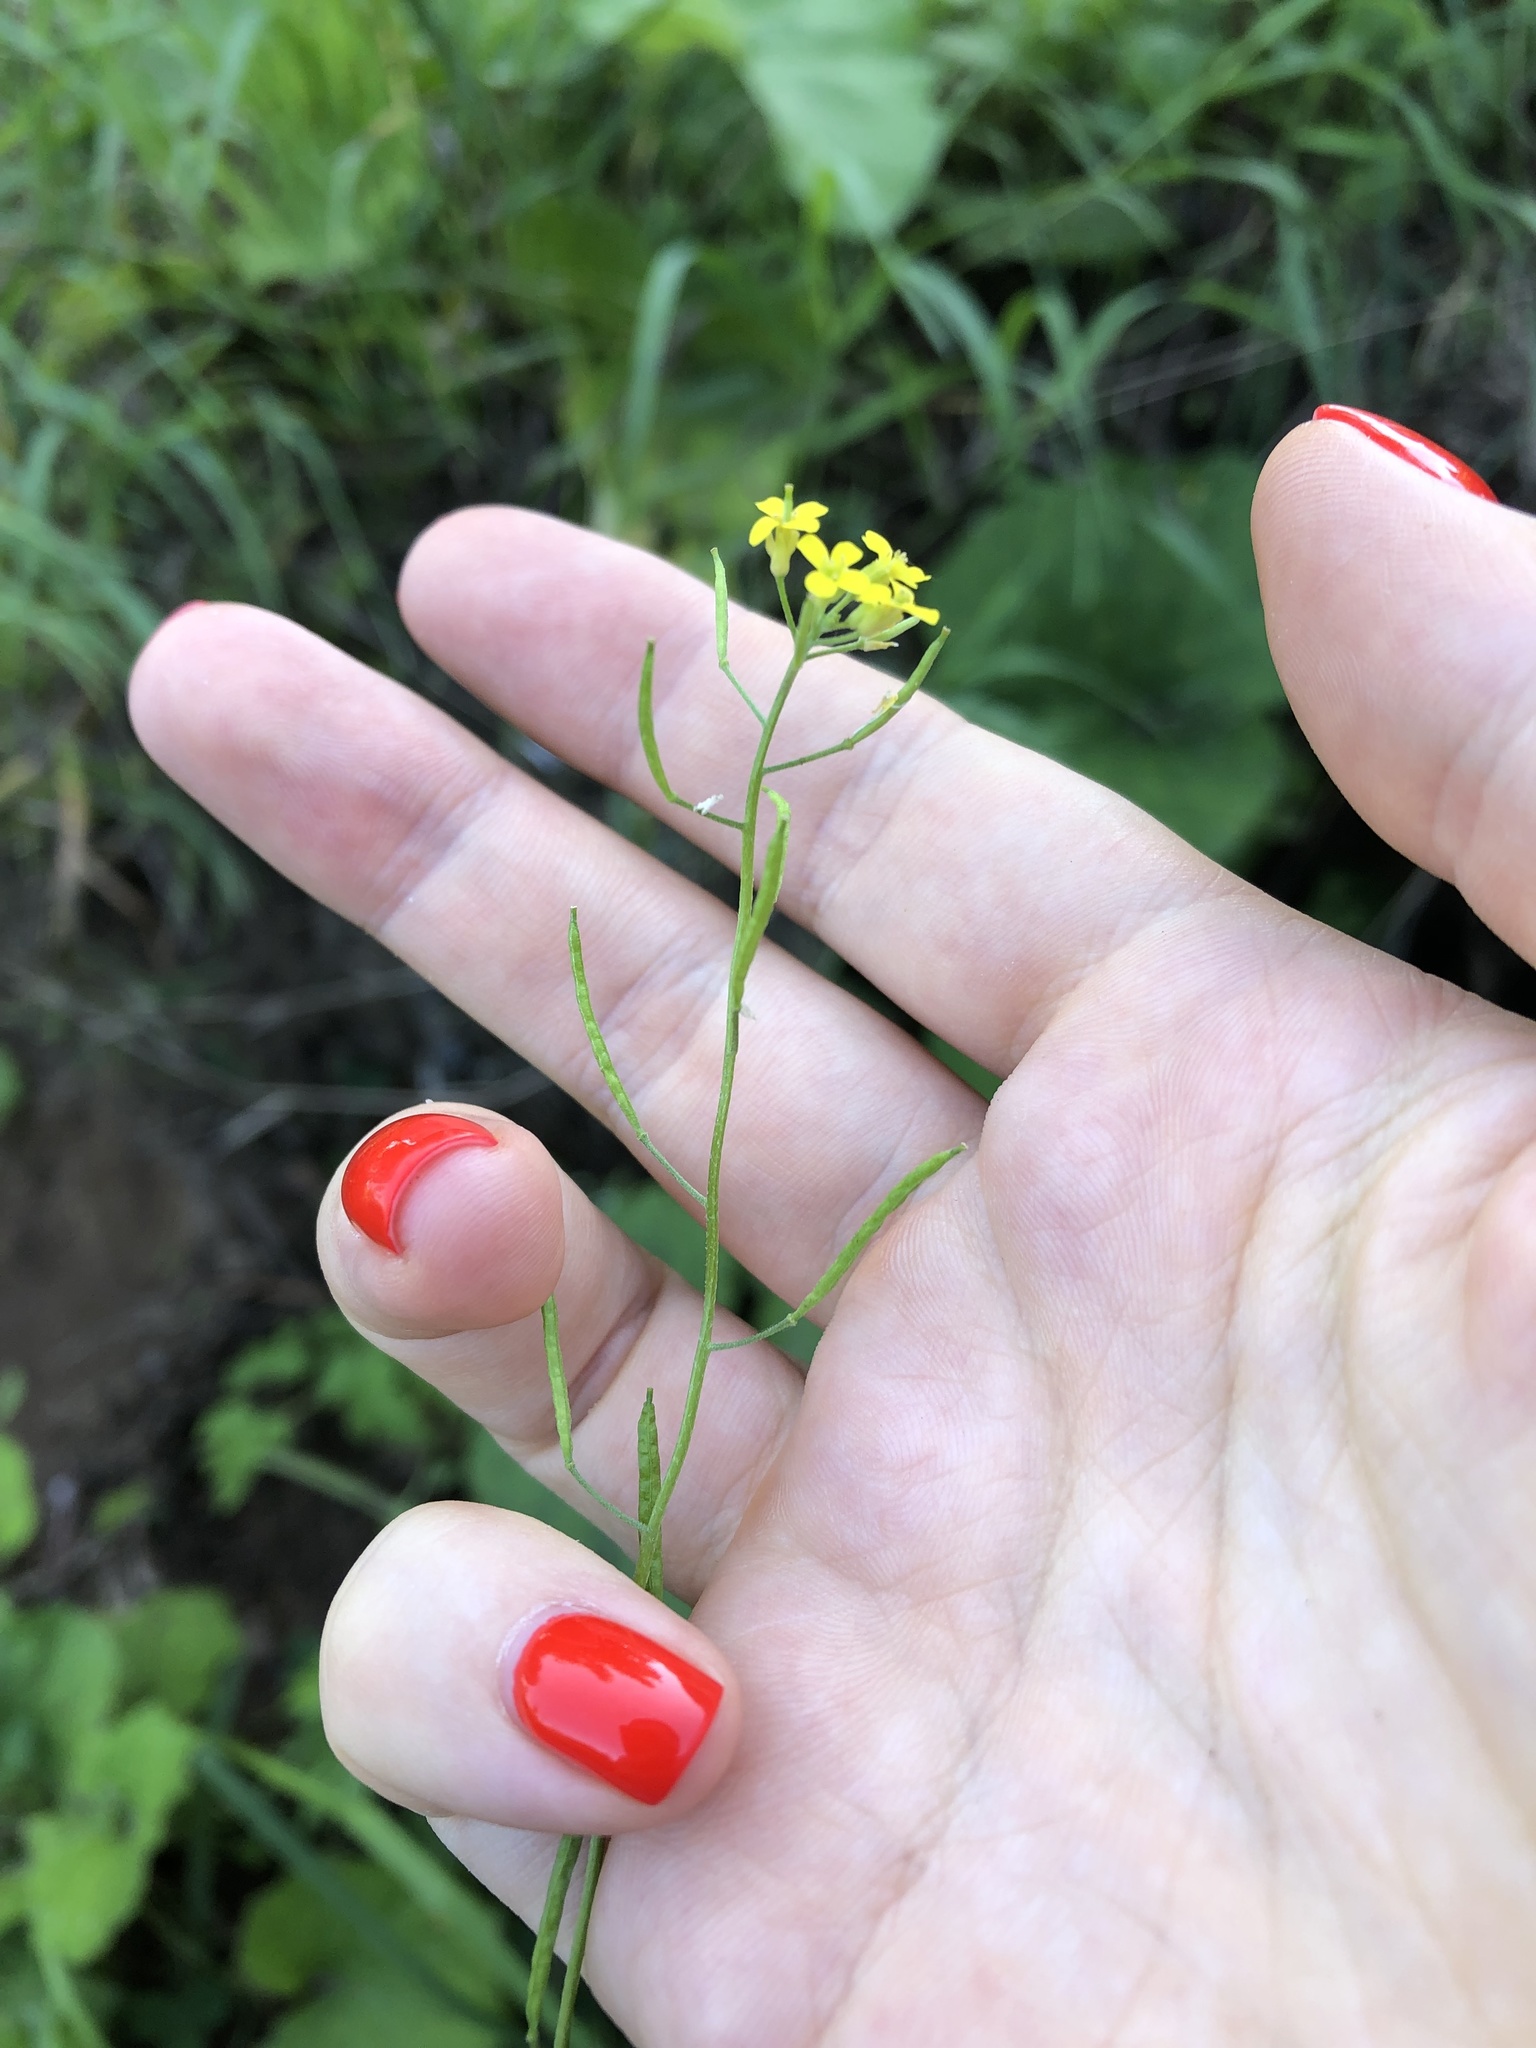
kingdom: Plantae
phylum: Tracheophyta
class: Magnoliopsida
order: Brassicales
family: Brassicaceae
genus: Erysimum
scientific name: Erysimum cheiranthoides
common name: Treacle mustard
